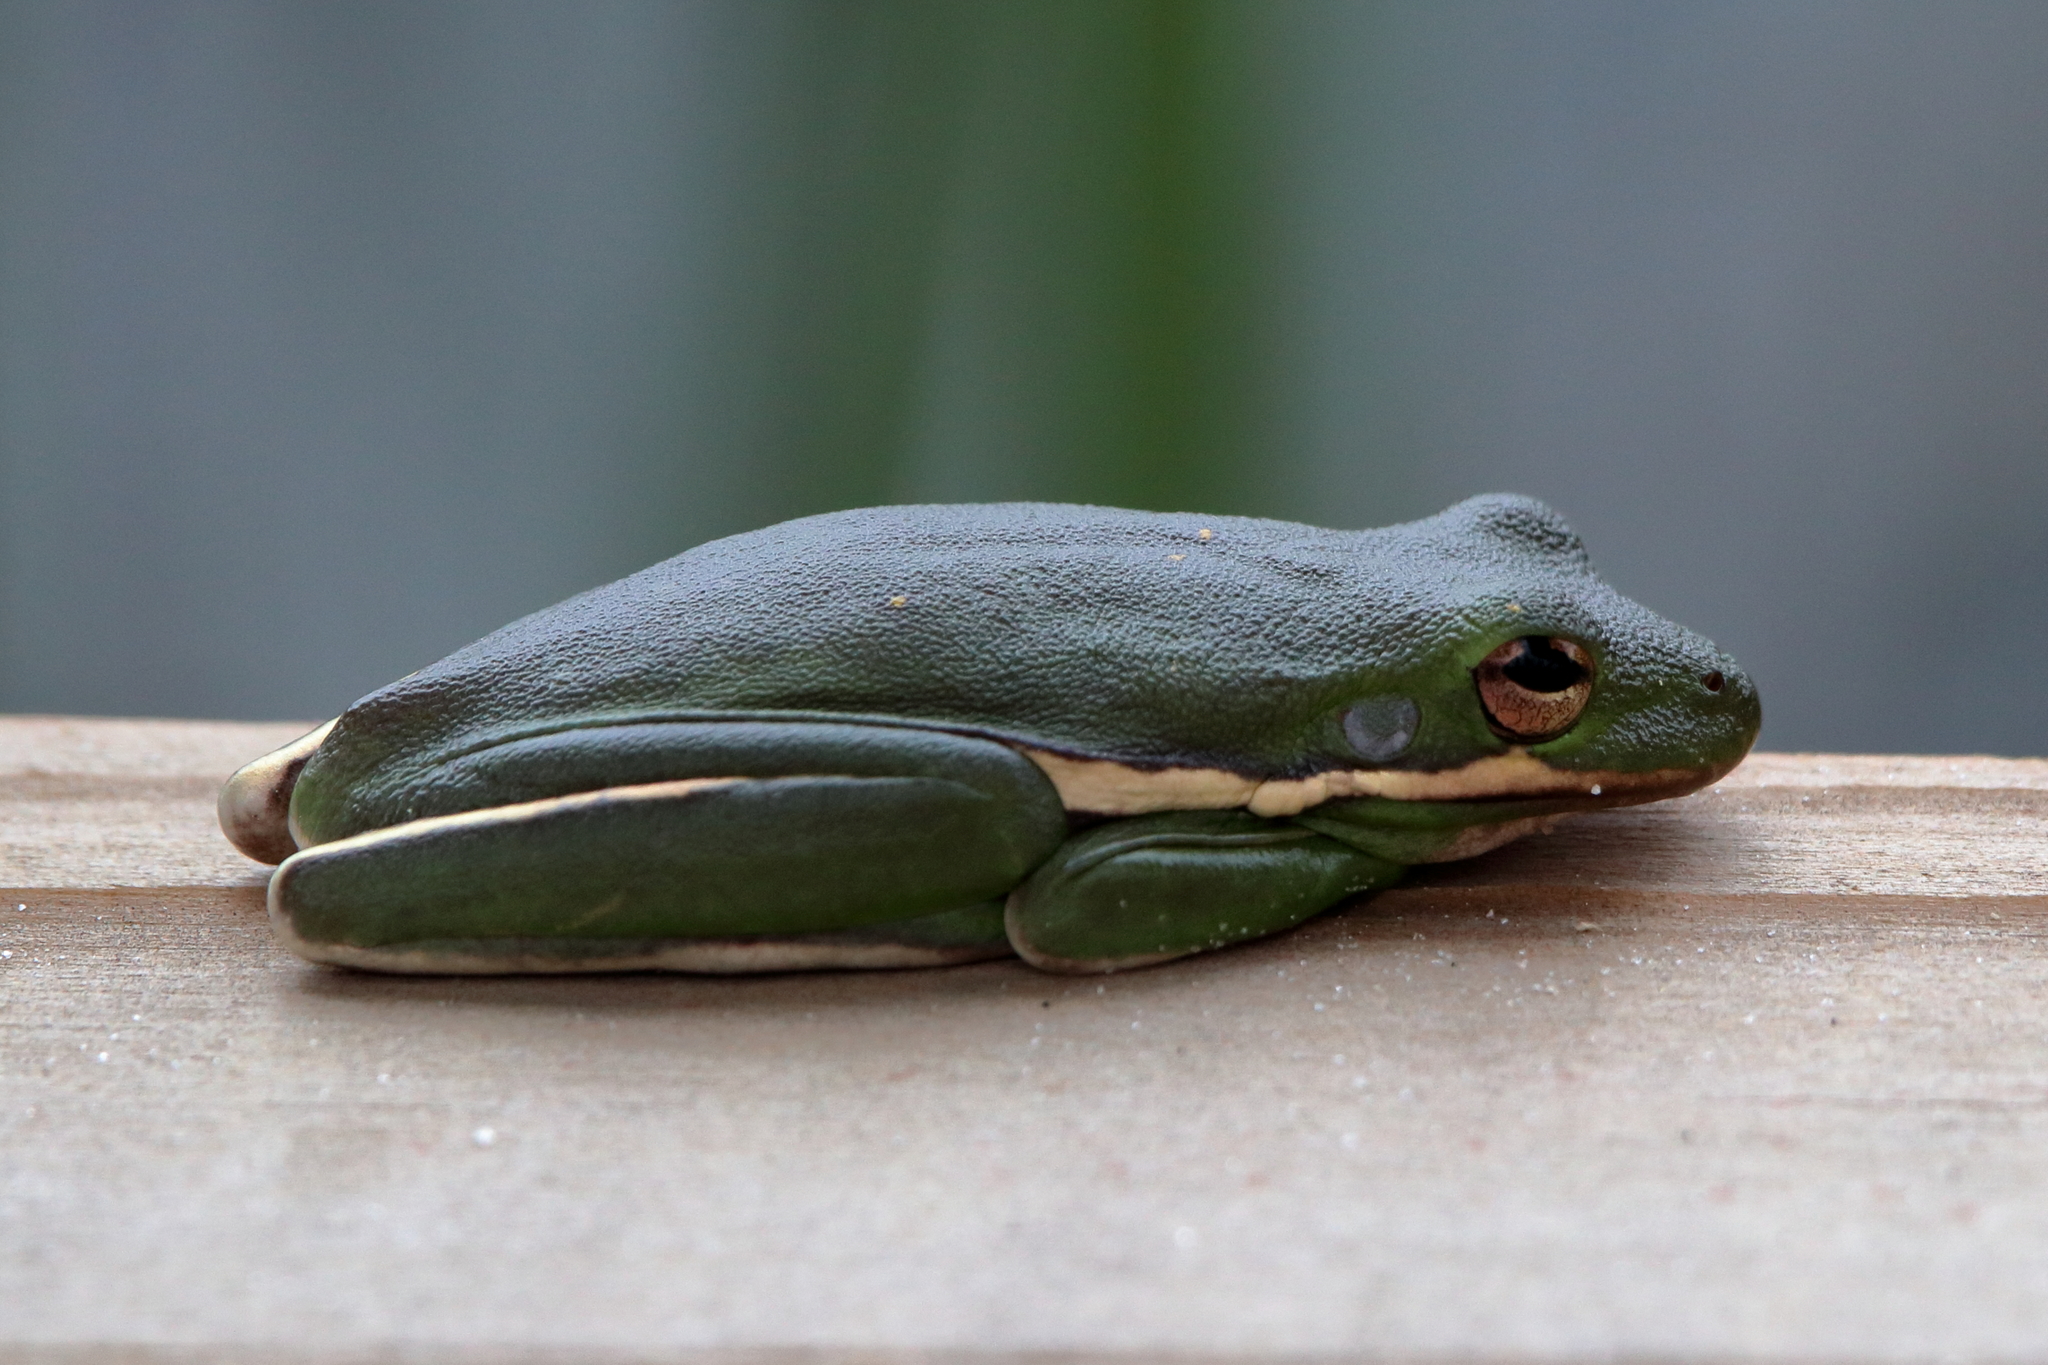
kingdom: Animalia
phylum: Chordata
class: Amphibia
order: Anura
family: Hylidae
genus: Dryophytes
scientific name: Dryophytes cinereus
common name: Green treefrog
